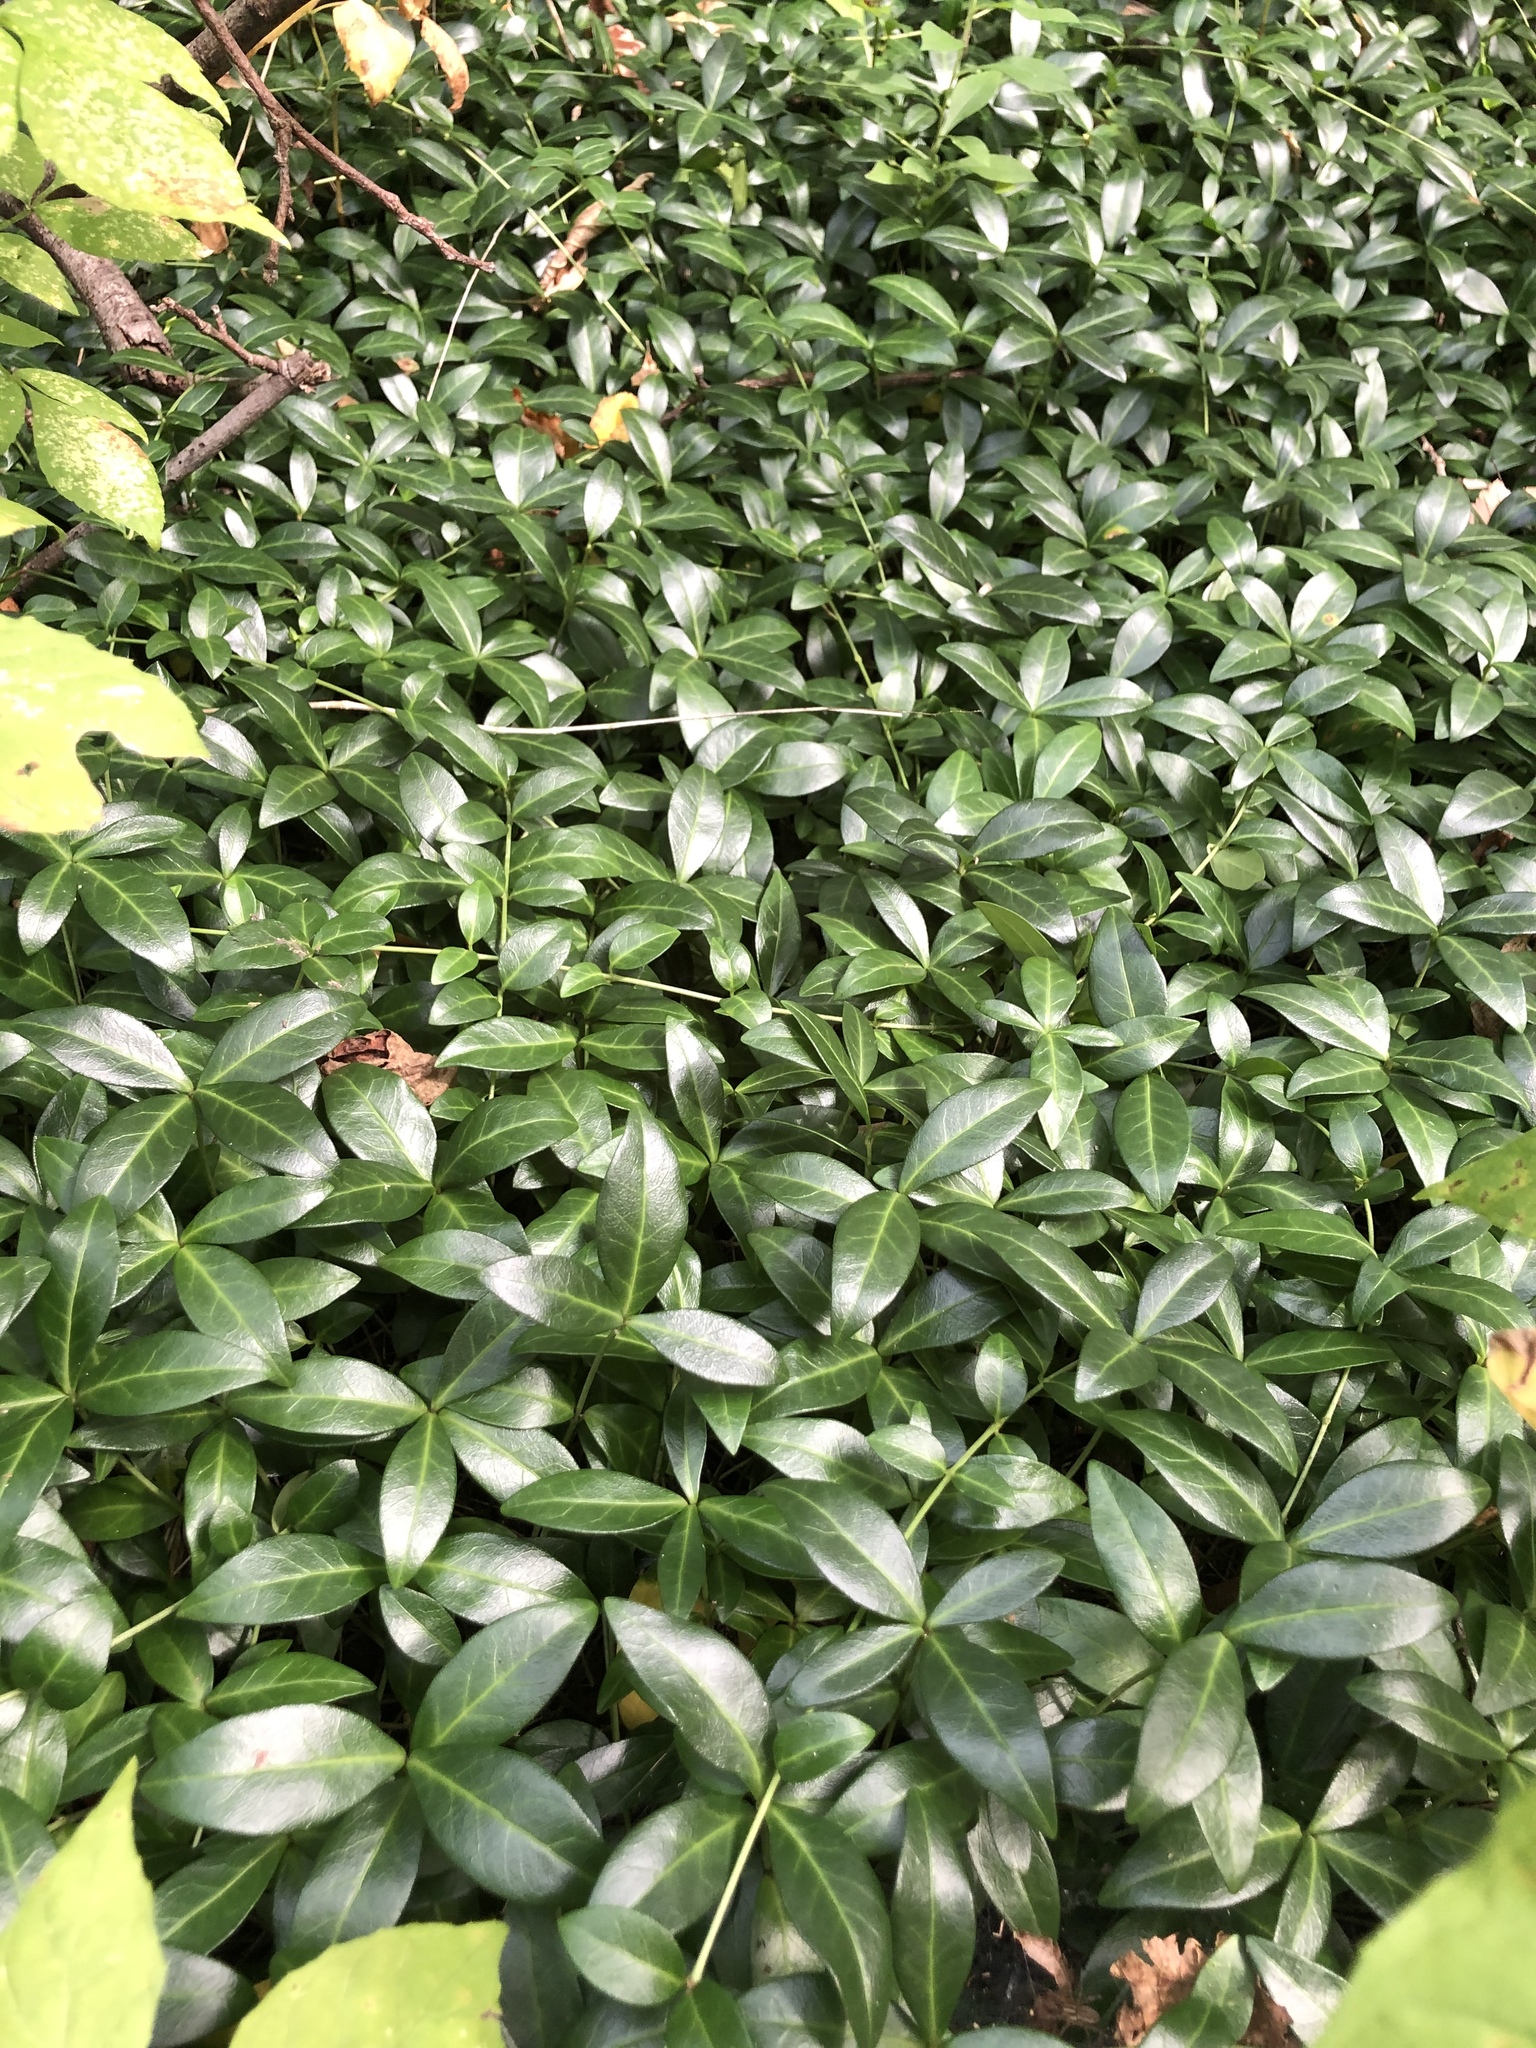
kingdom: Plantae
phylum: Tracheophyta
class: Magnoliopsida
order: Gentianales
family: Apocynaceae
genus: Vinca
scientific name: Vinca minor
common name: Lesser periwinkle
